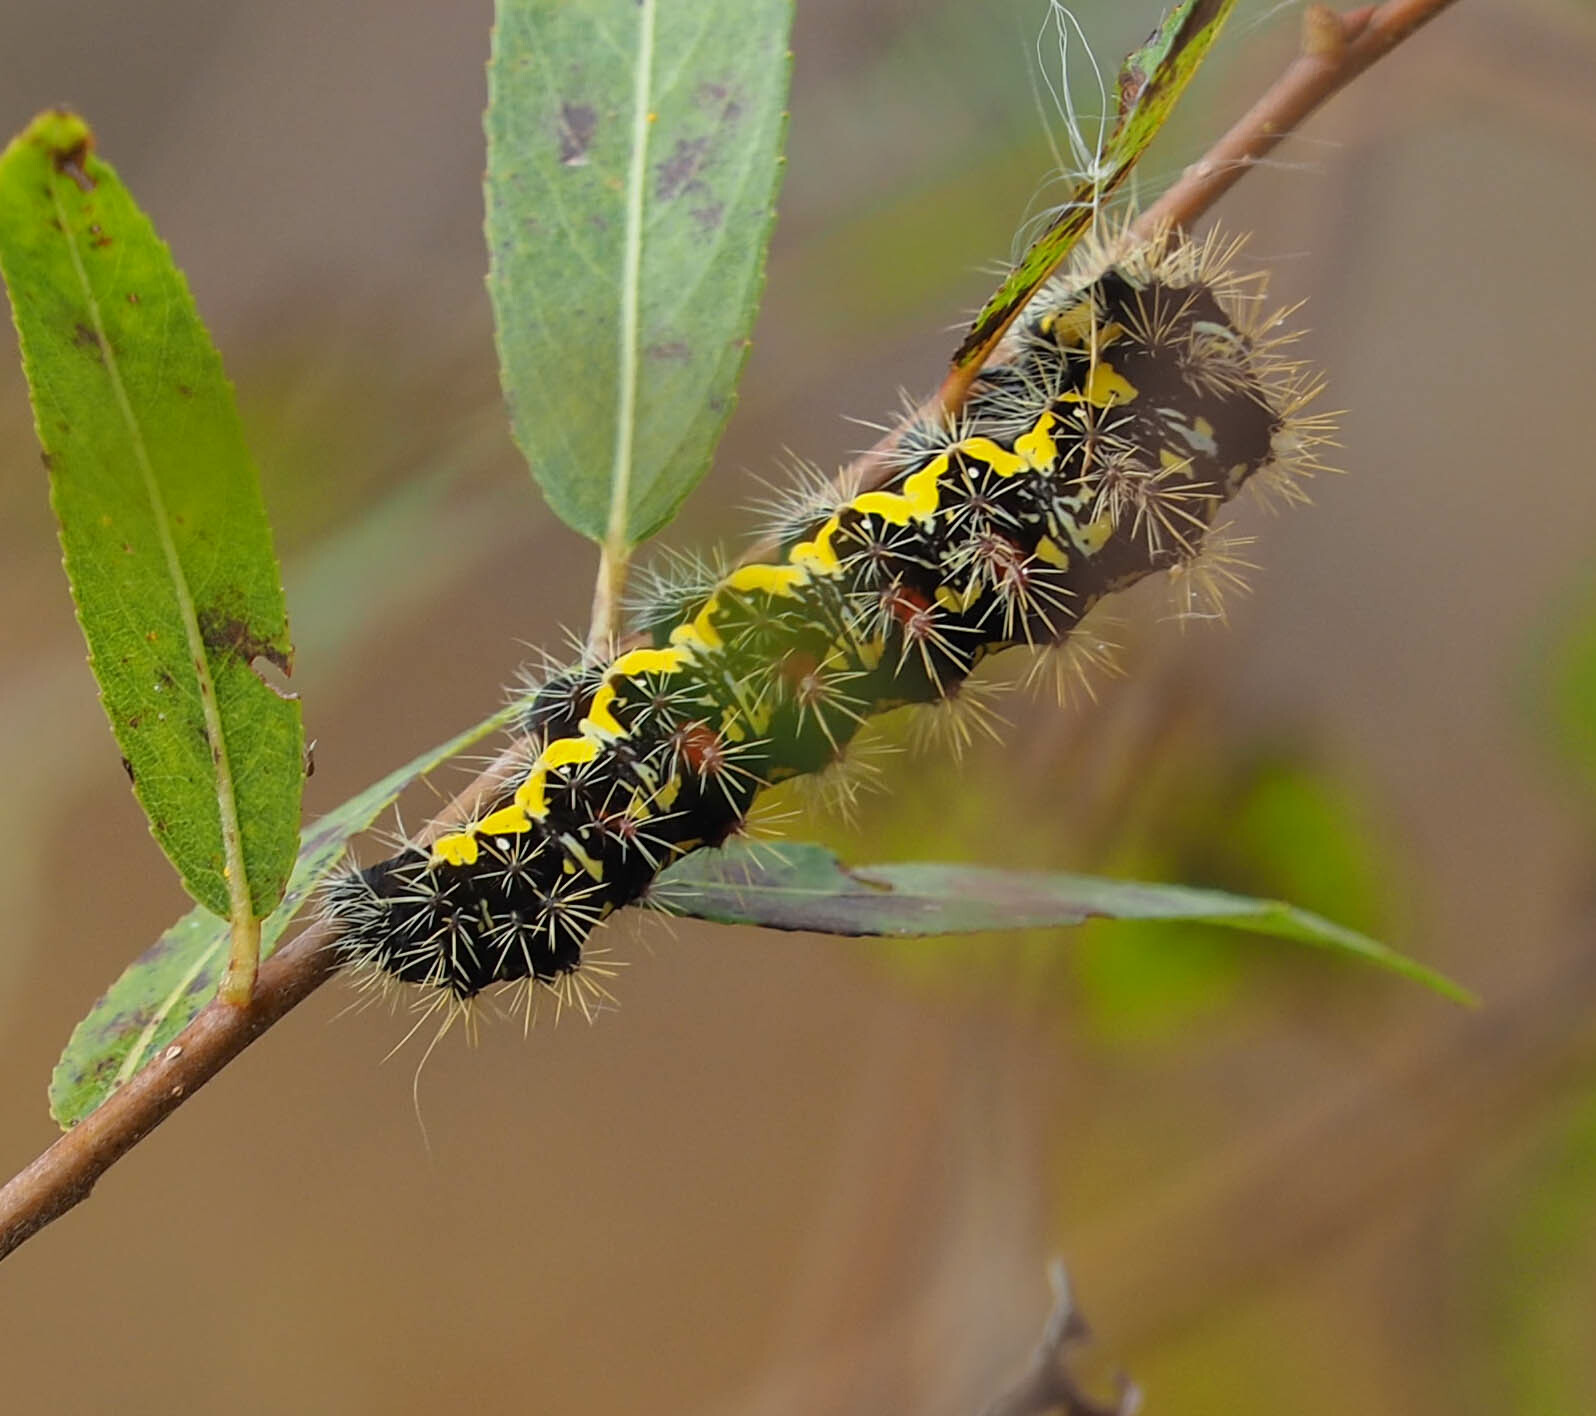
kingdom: Animalia
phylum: Arthropoda
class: Insecta
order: Lepidoptera
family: Noctuidae
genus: Acronicta
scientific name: Acronicta oblinita
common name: Smeared dagger
